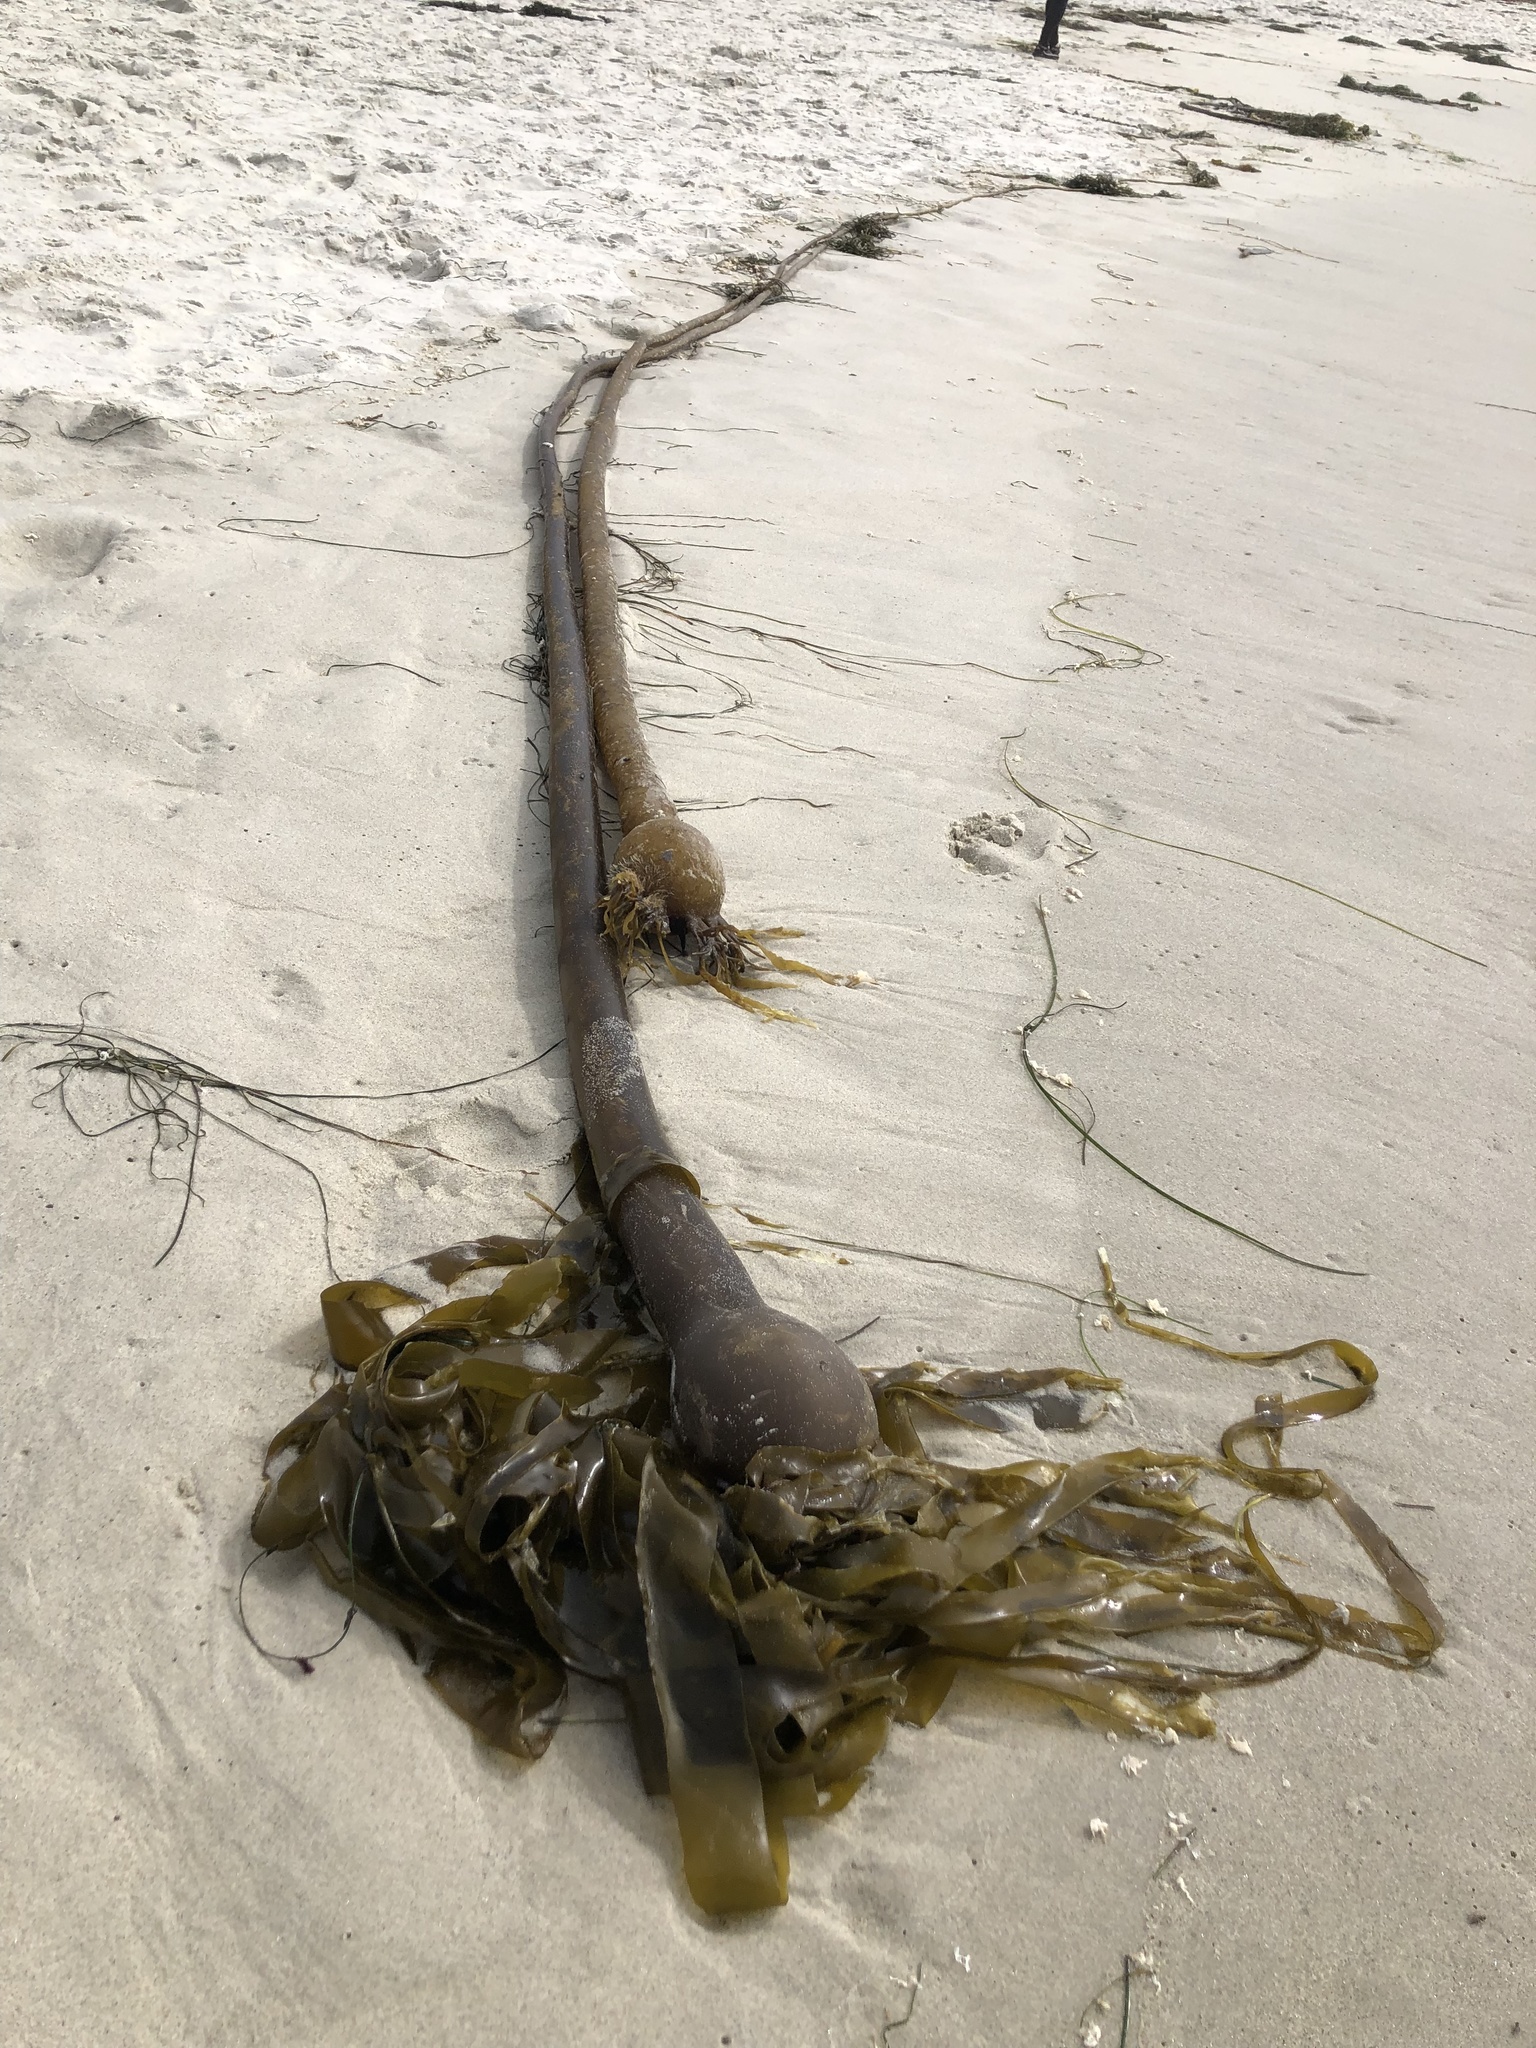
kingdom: Chromista
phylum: Ochrophyta
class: Phaeophyceae
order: Laminariales
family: Laminariaceae
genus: Nereocystis
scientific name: Nereocystis luetkeana
